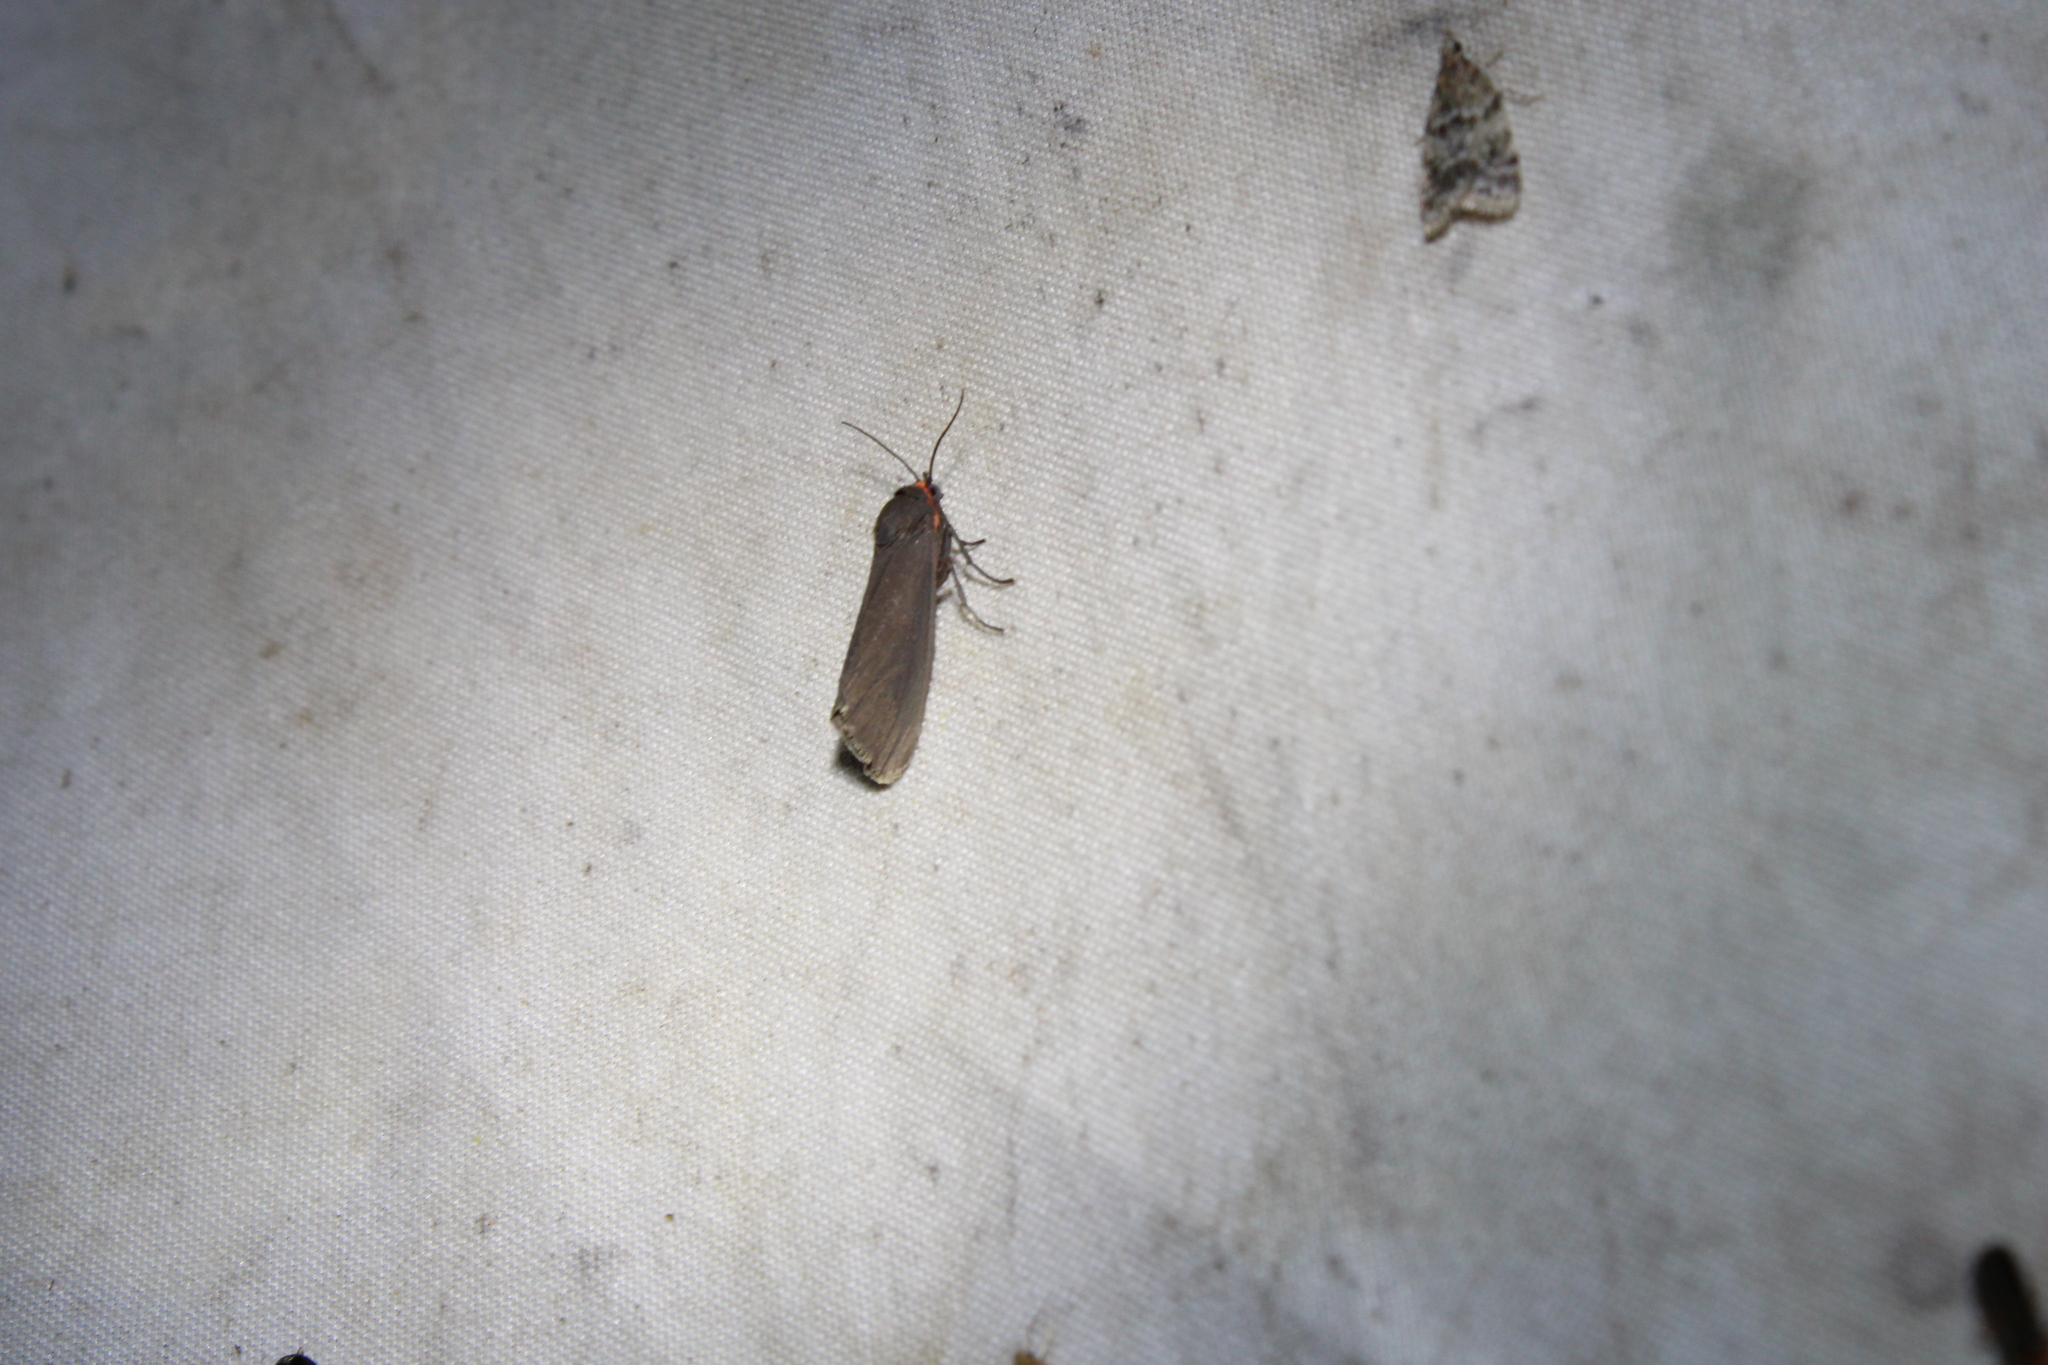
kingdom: Animalia
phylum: Arthropoda
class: Insecta
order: Lepidoptera
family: Erebidae
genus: Virbia
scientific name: Virbia laeta
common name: Joyful holomelina moth
